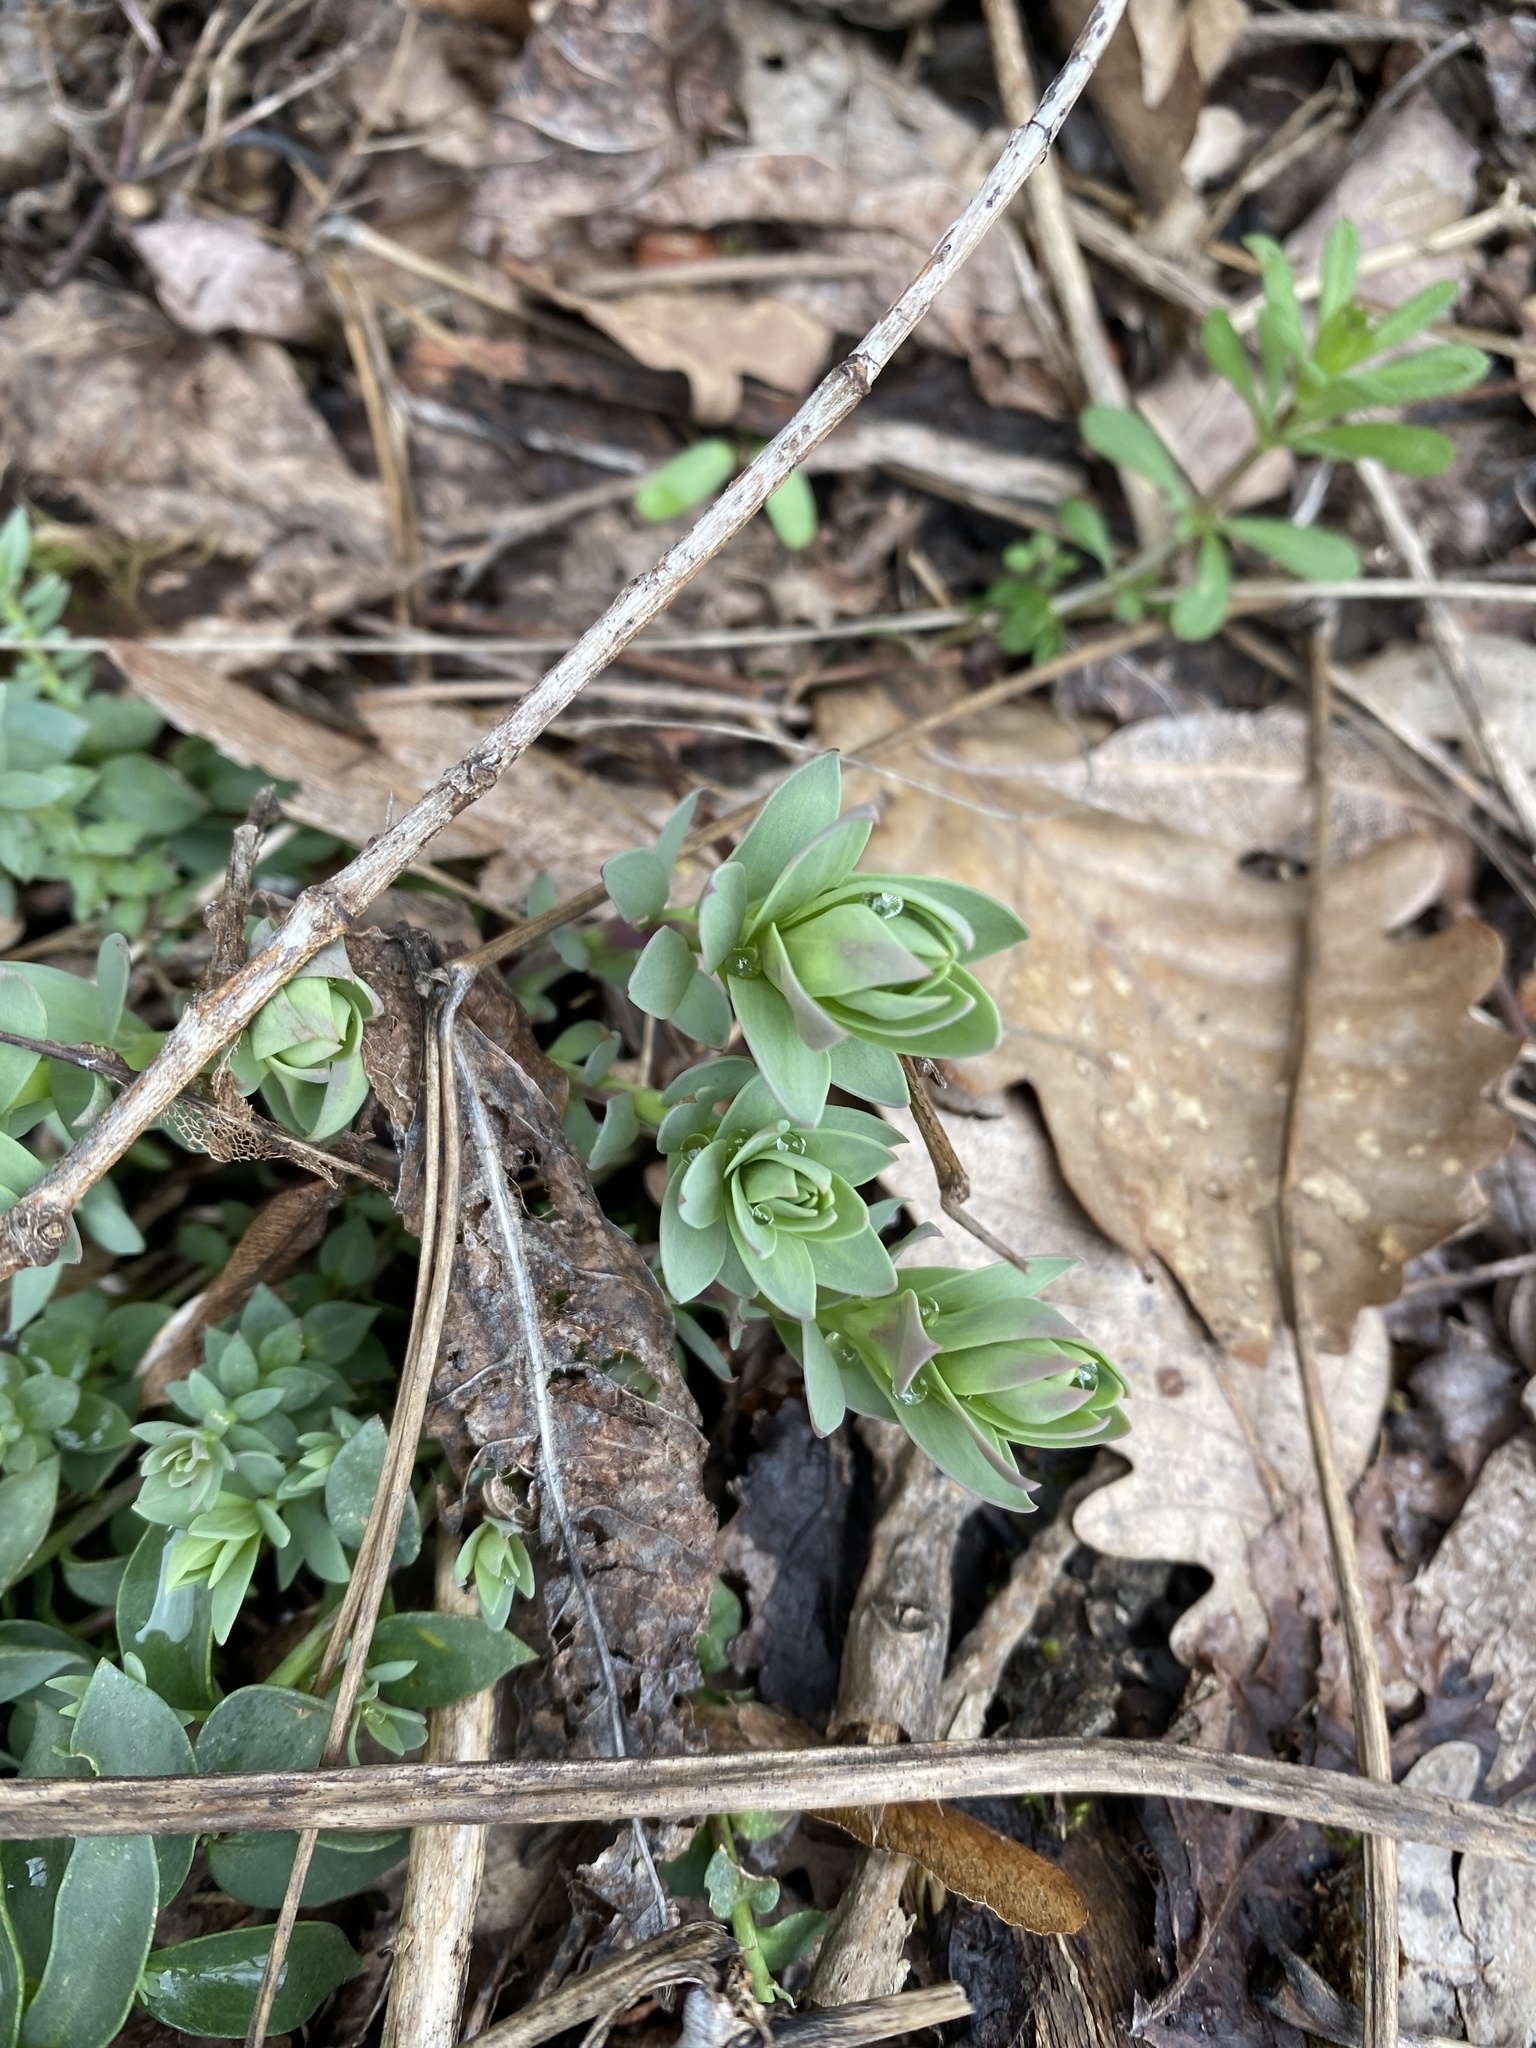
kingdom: Plantae
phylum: Tracheophyta
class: Magnoliopsida
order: Lamiales
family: Plantaginaceae
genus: Linaria
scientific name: Linaria genistifolia
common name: Broomleaf toadflax
